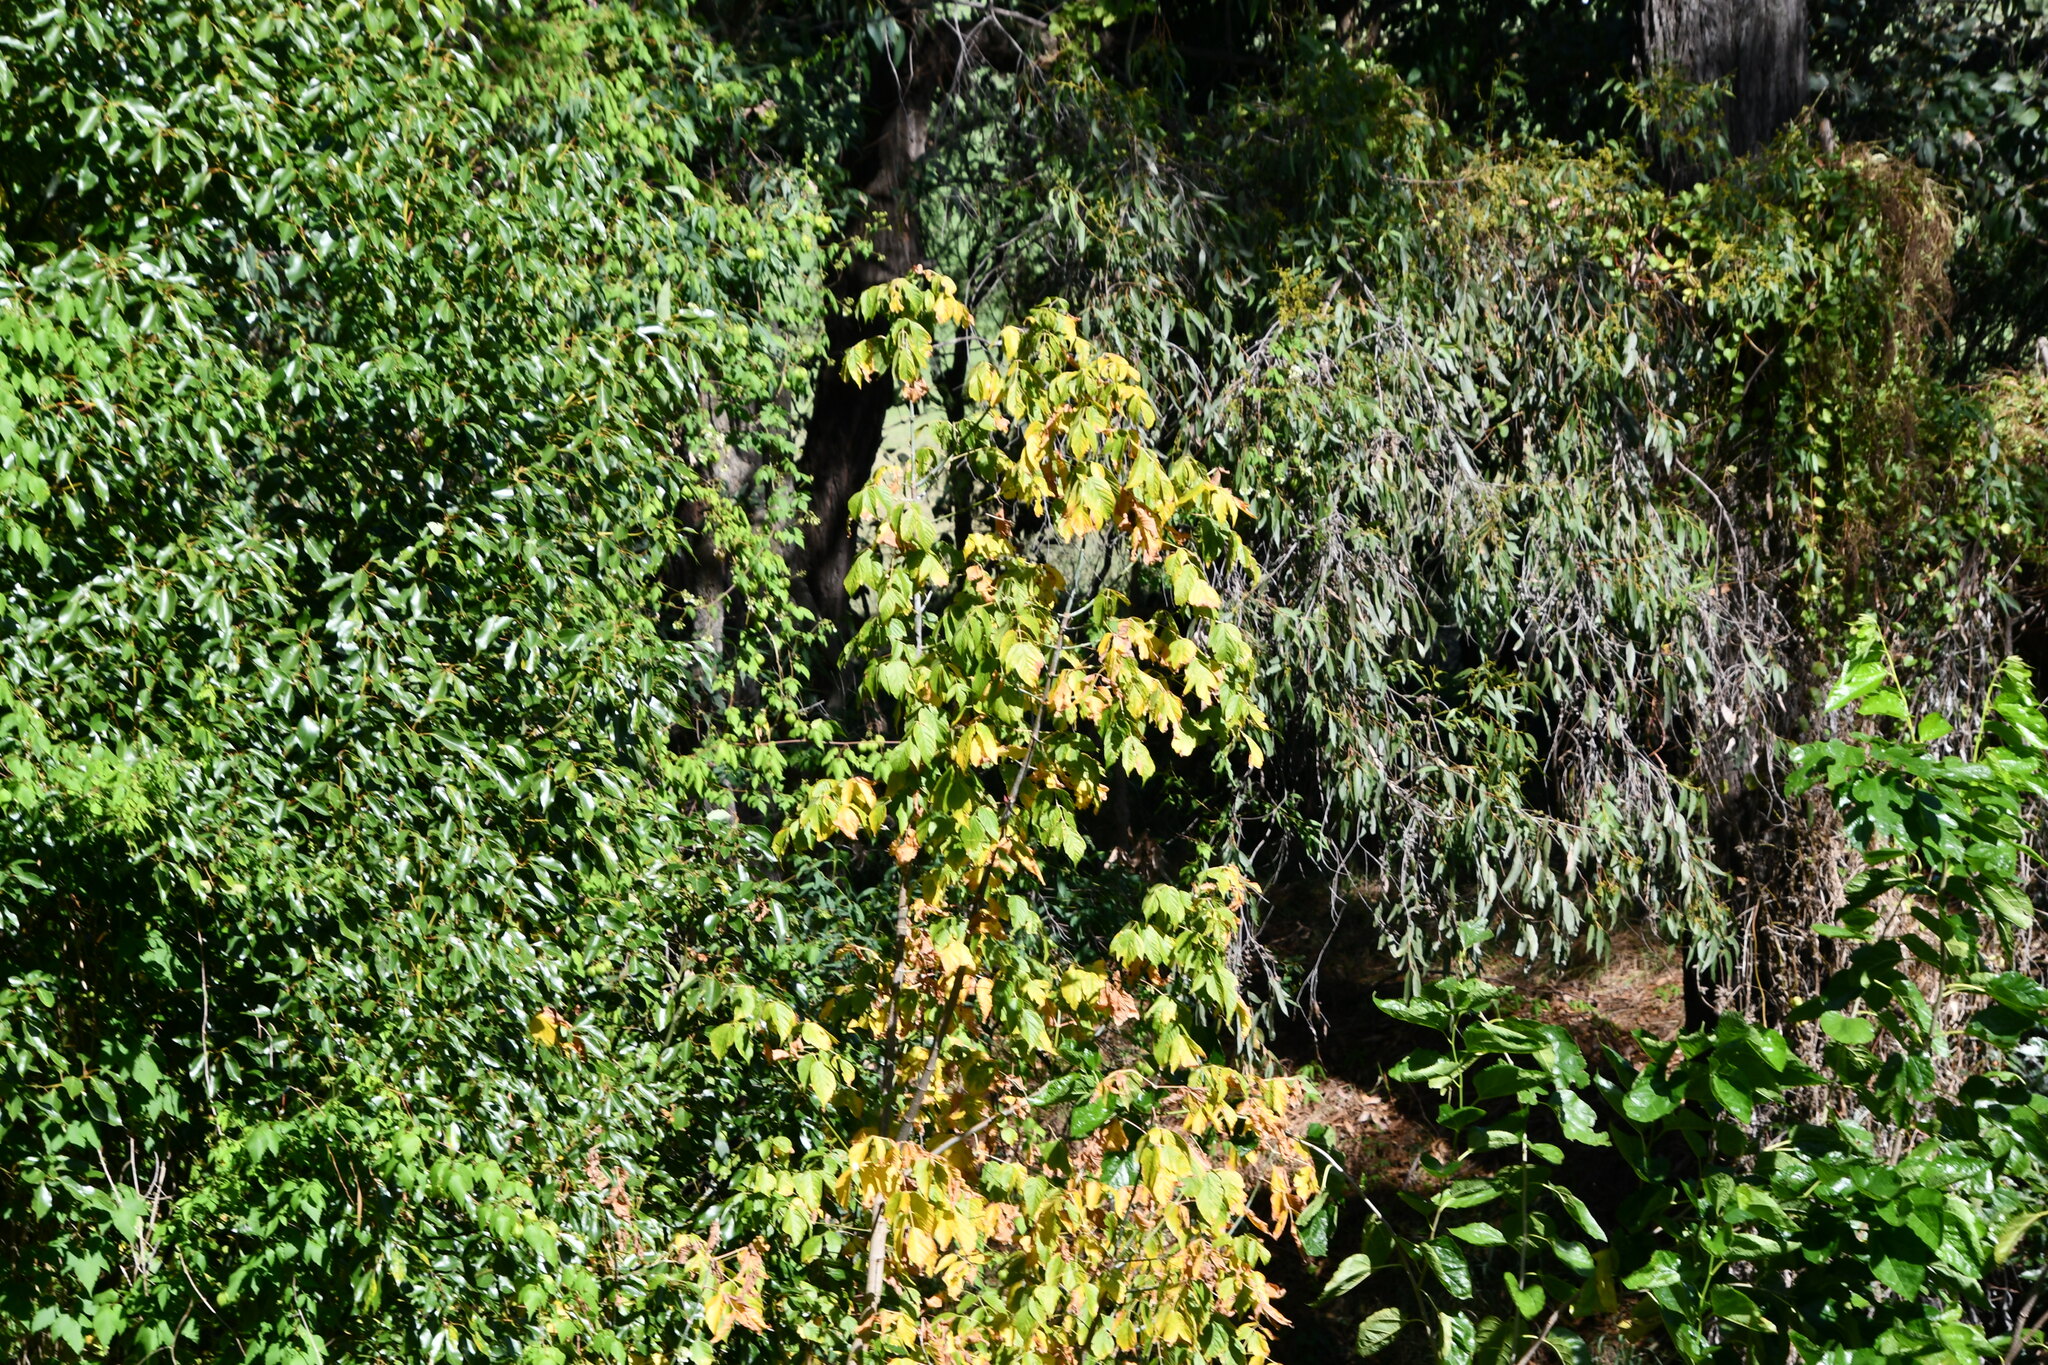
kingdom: Plantae
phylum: Tracheophyta
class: Magnoliopsida
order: Sapindales
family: Sapindaceae
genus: Acer
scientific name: Acer negundo
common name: Ashleaf maple
